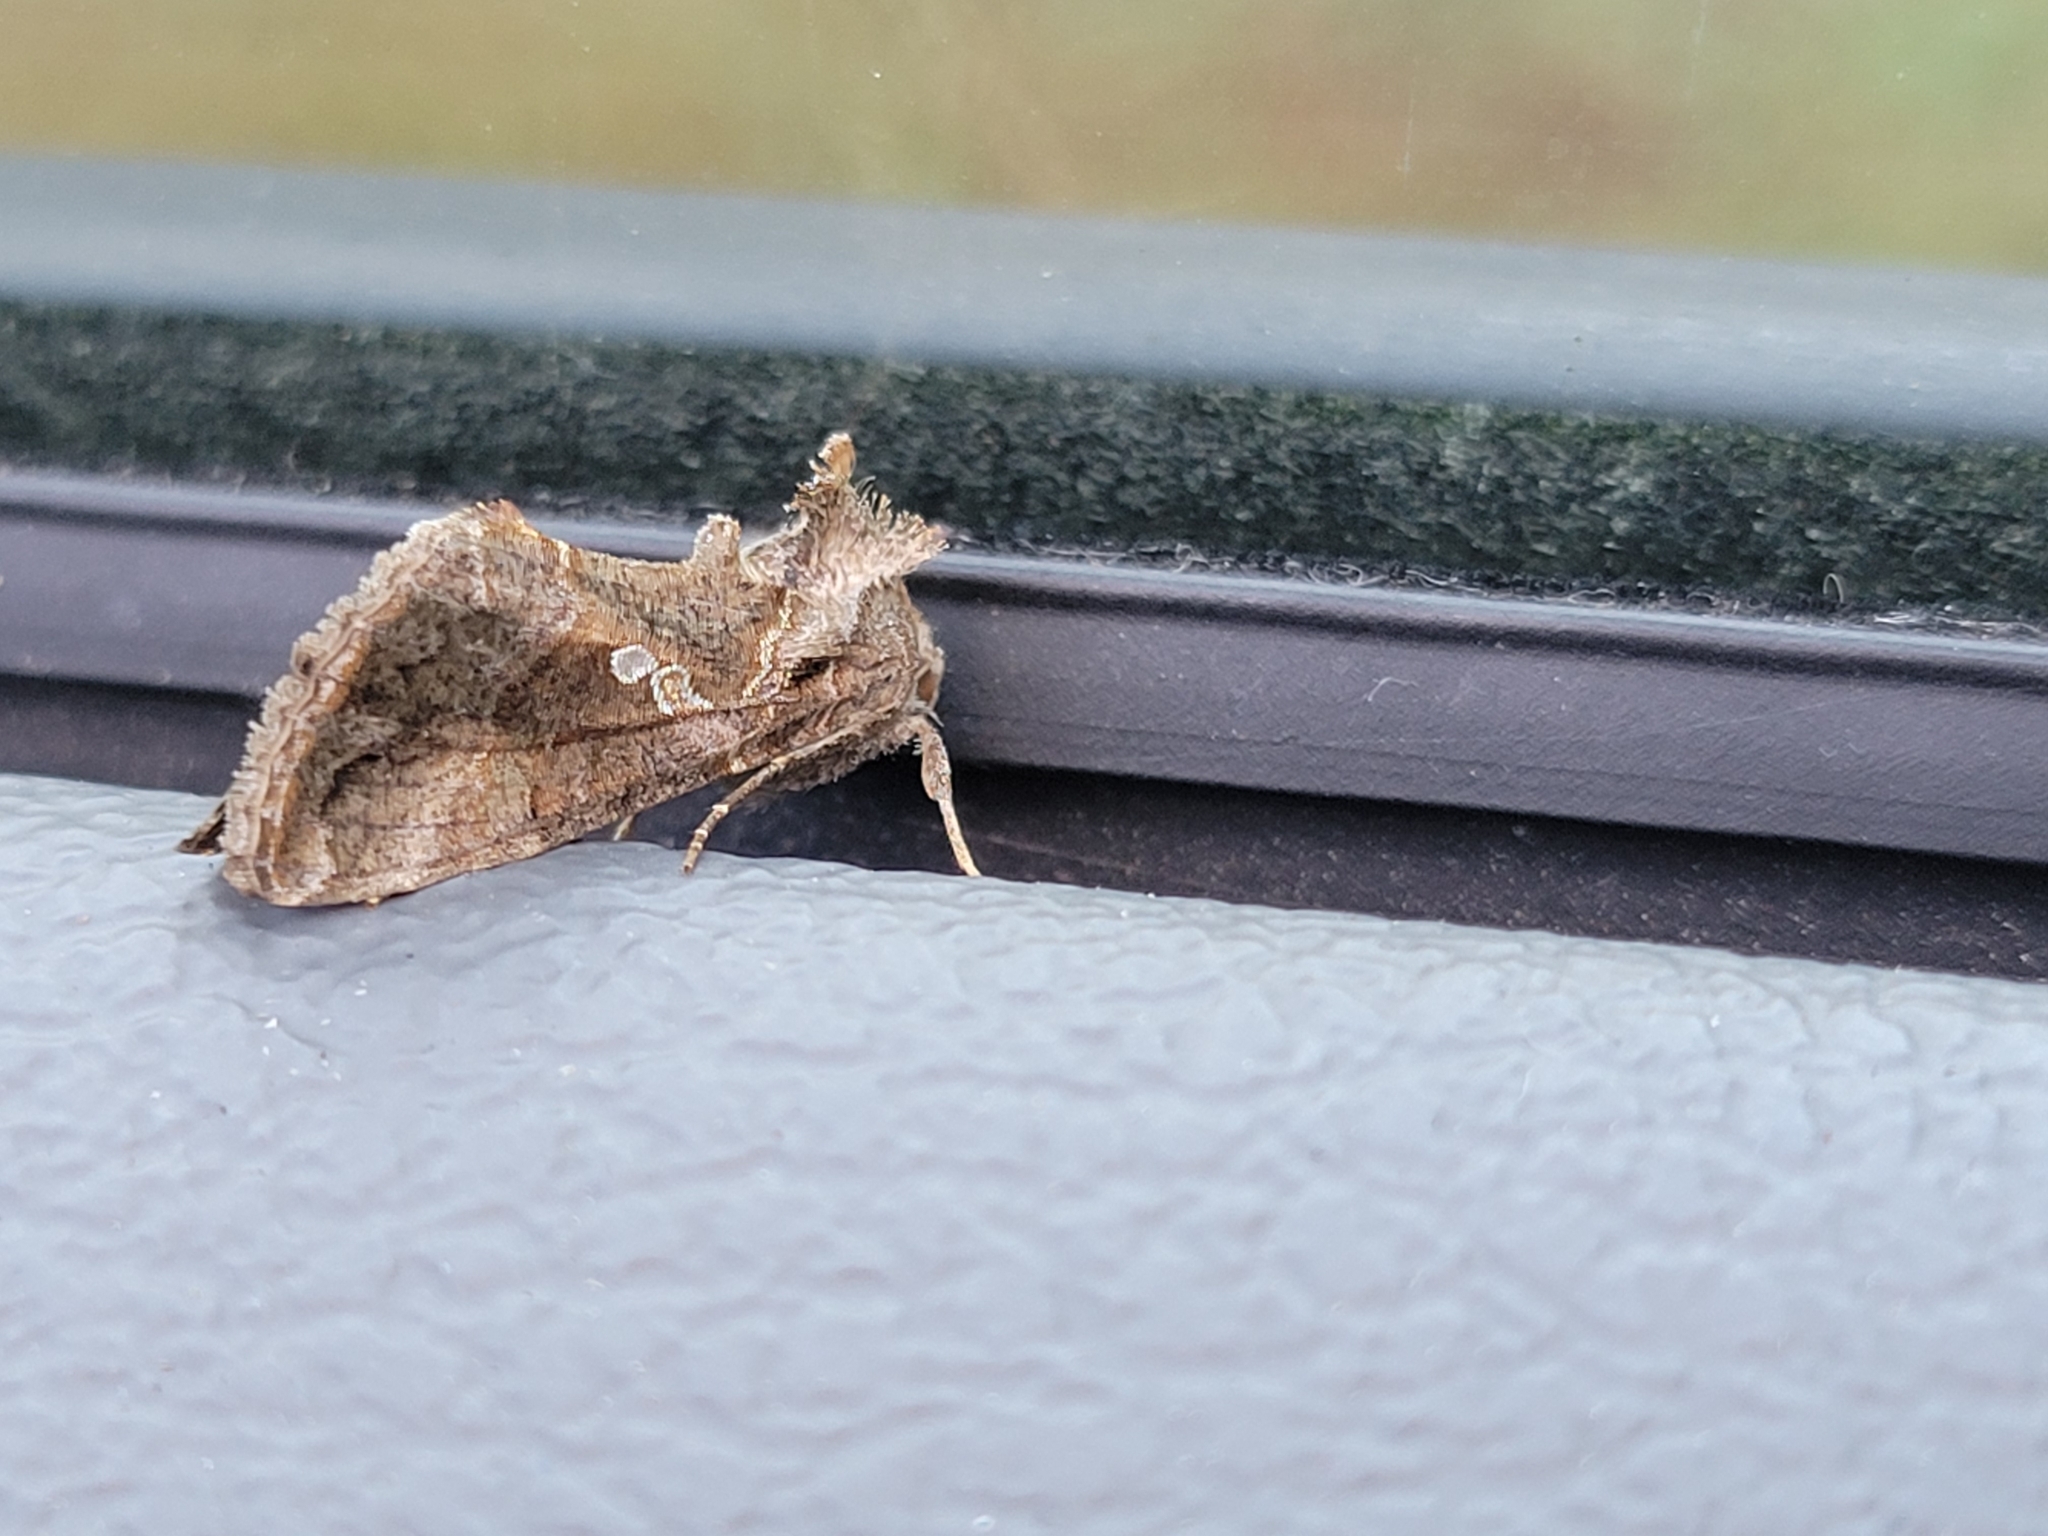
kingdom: Animalia
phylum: Arthropoda
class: Insecta
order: Lepidoptera
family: Noctuidae
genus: Chrysodeixis
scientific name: Chrysodeixis includens
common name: Cutworm moth
